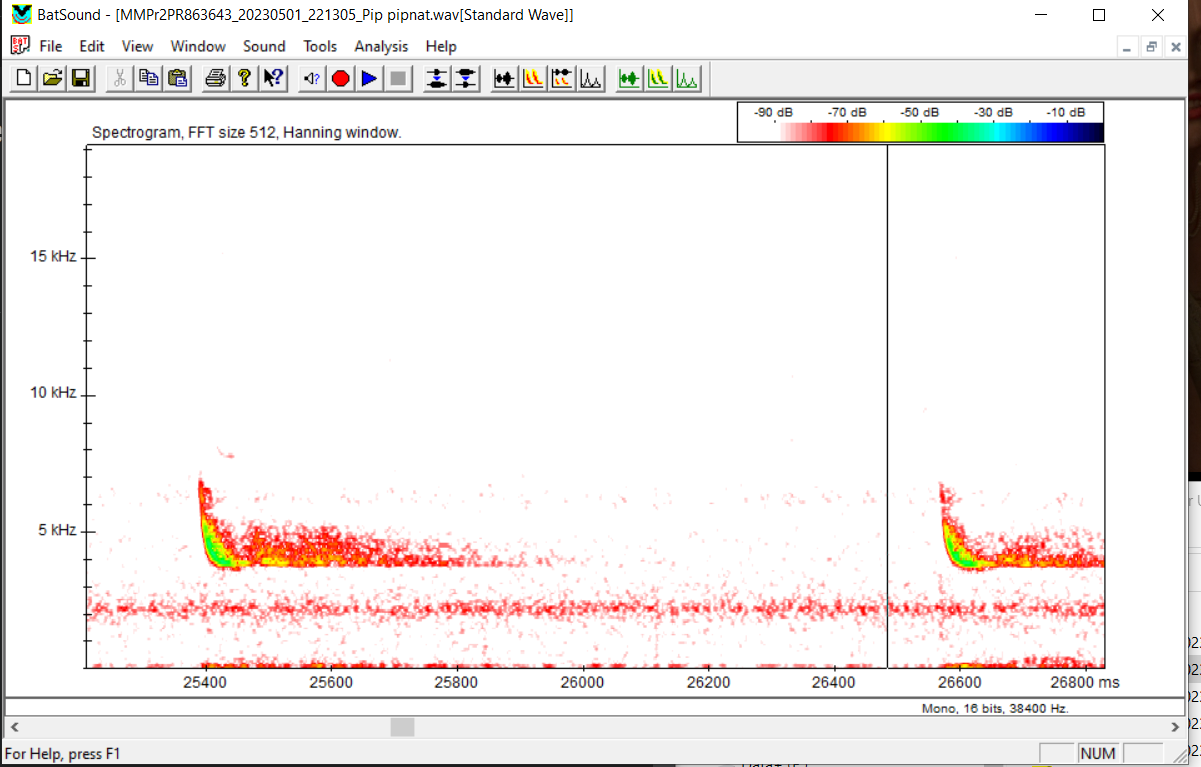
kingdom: Animalia
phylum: Chordata
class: Mammalia
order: Chiroptera
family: Vespertilionidae
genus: Pipistrellus
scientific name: Pipistrellus nathusii
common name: Nathusius's pipistrelle
